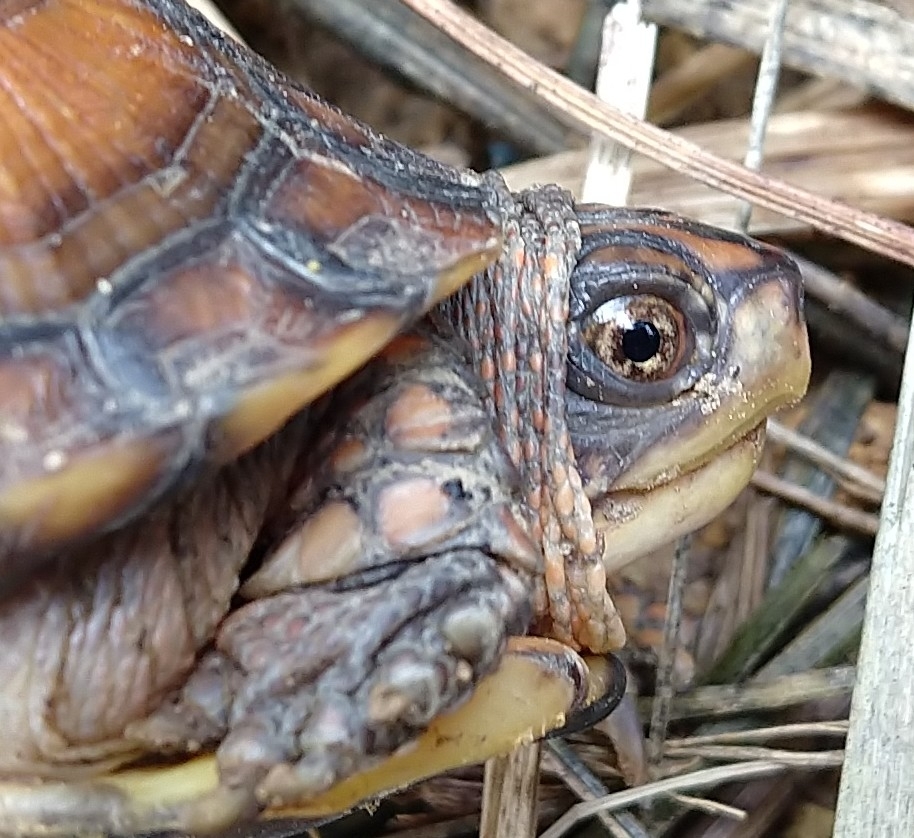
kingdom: Animalia
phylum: Chordata
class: Testudines
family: Emydidae
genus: Terrapene
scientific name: Terrapene carolina
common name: Common box turtle
